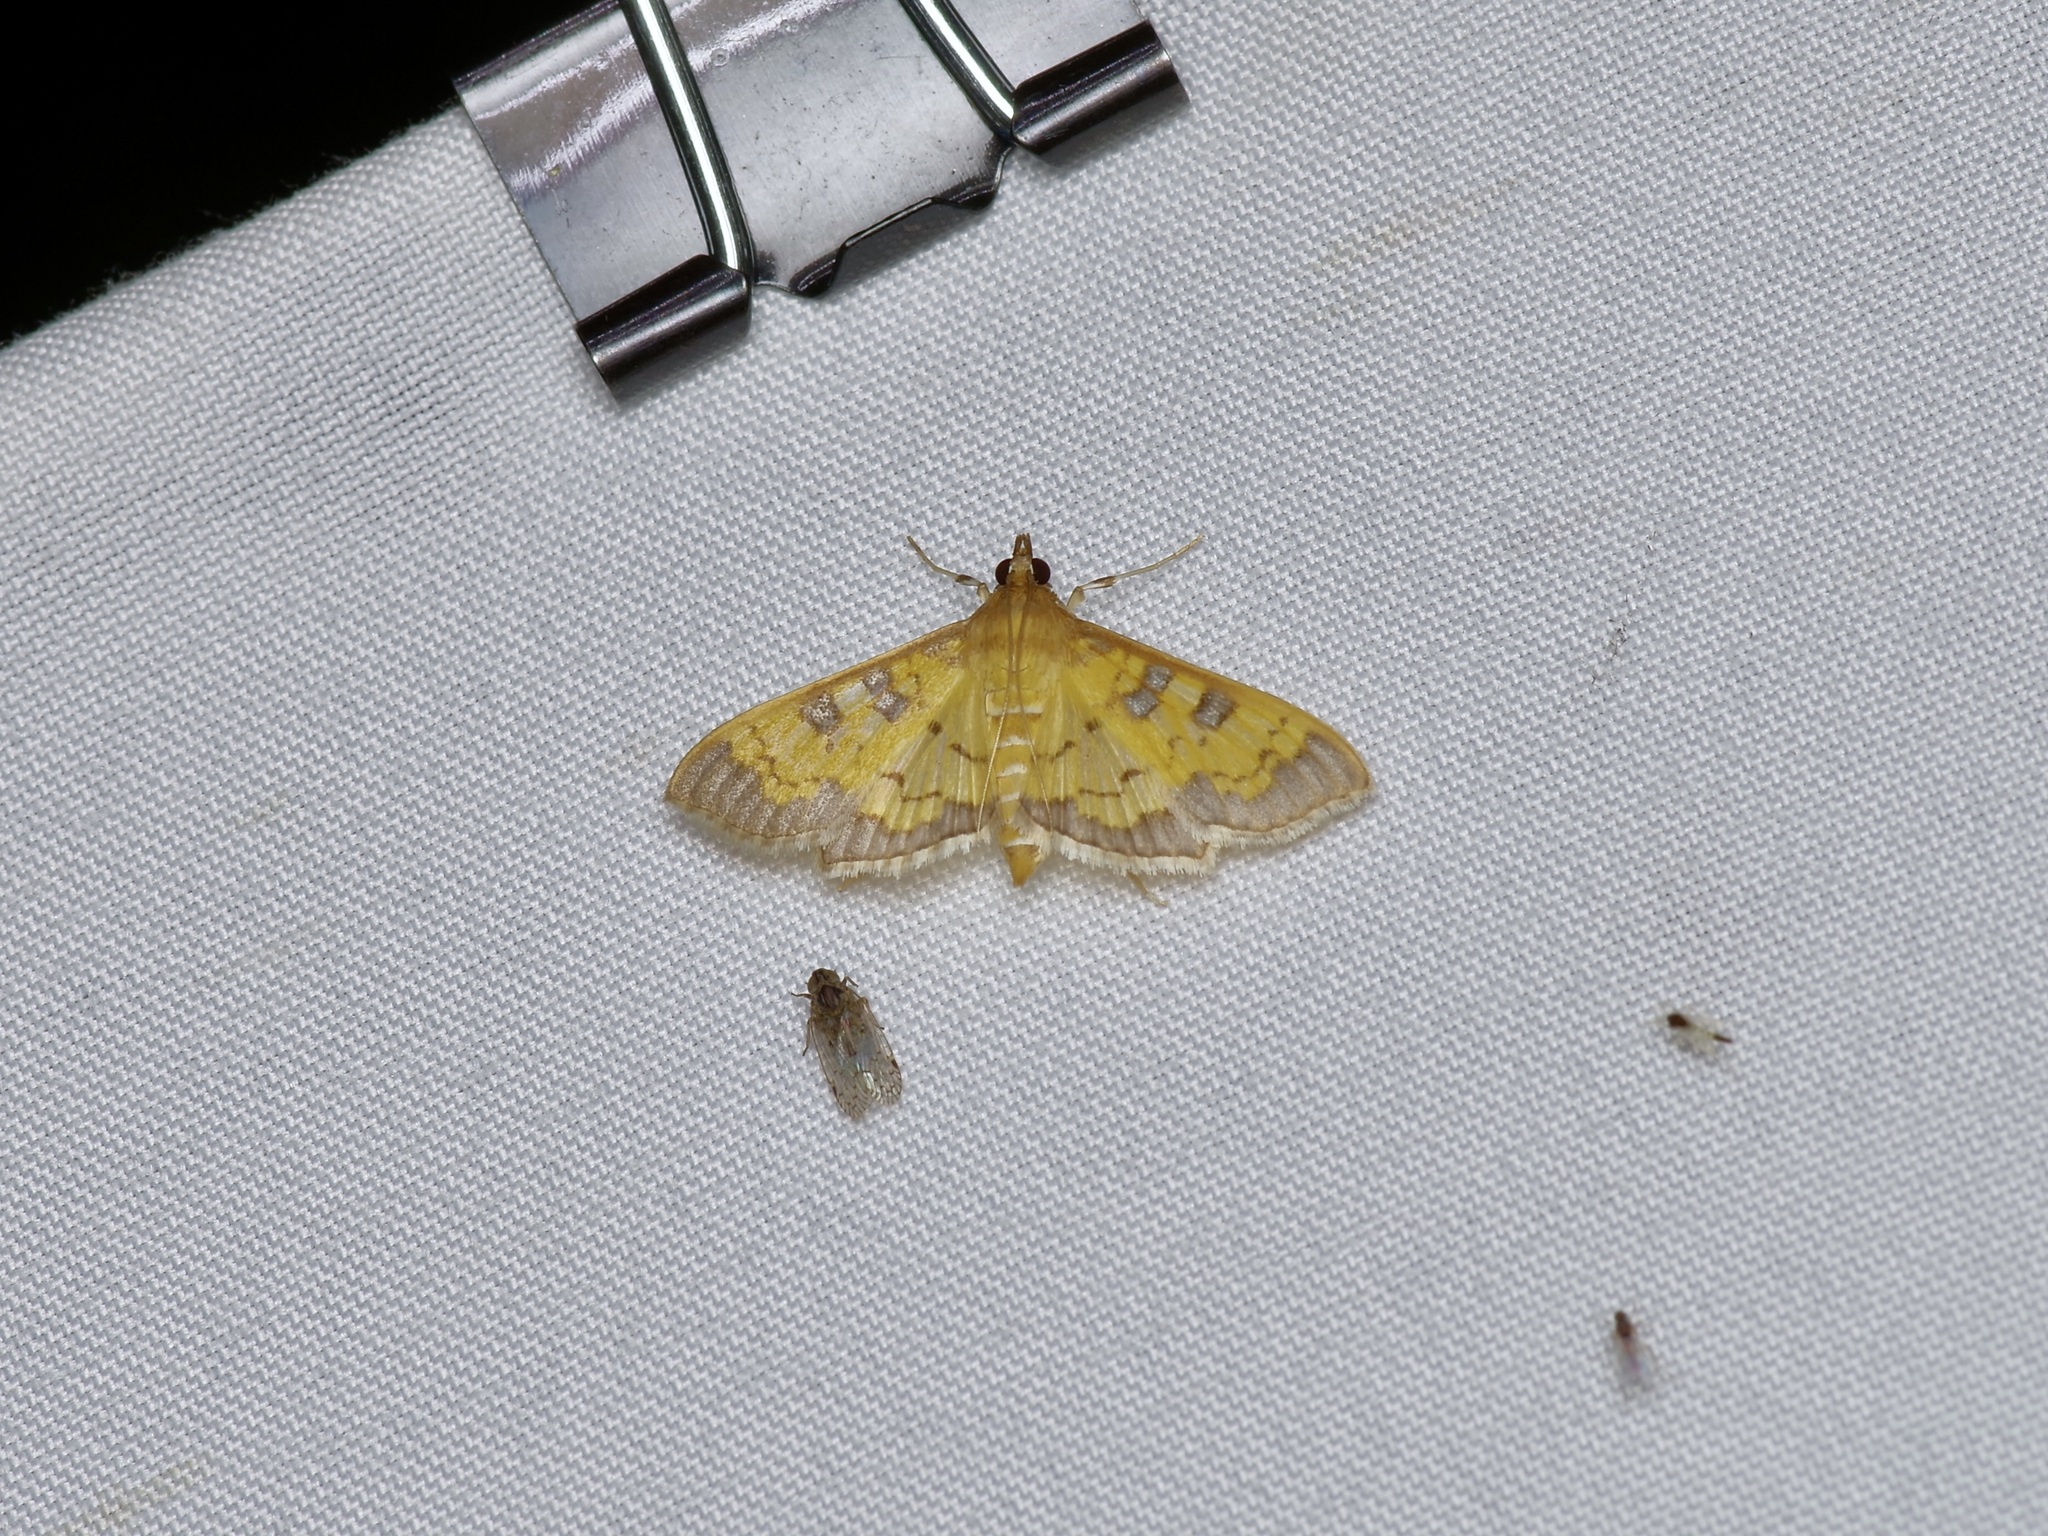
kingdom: Animalia
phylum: Arthropoda
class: Insecta
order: Lepidoptera
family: Crambidae
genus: Cryptographis
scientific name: Cryptographis elealis
